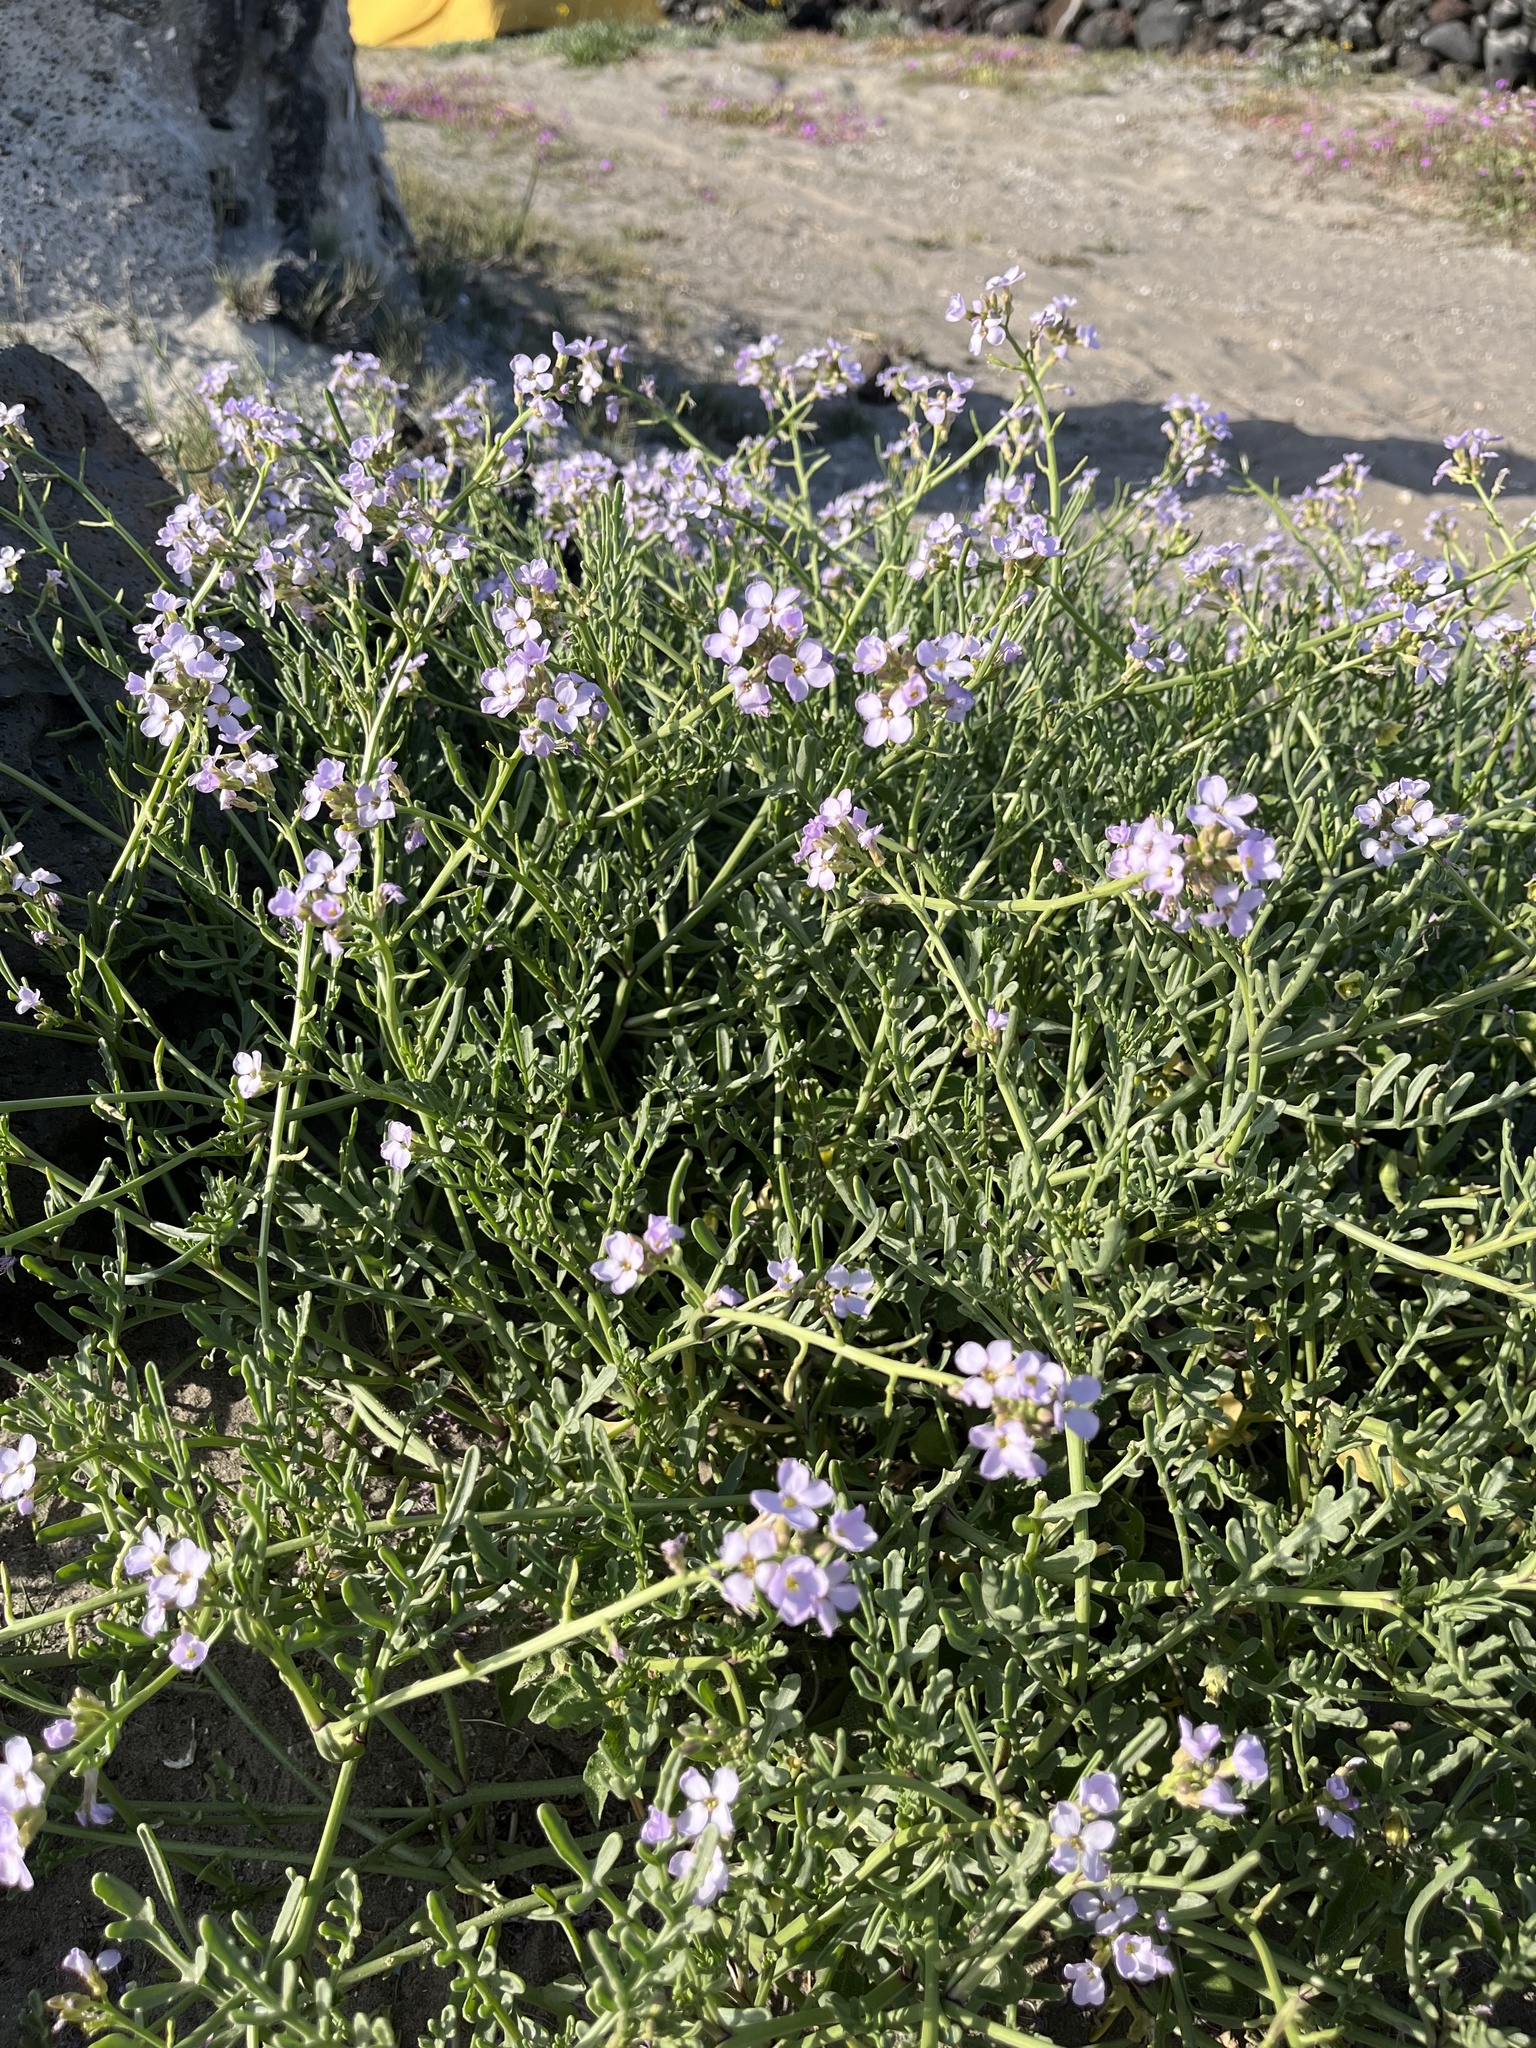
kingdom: Plantae
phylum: Tracheophyta
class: Magnoliopsida
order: Brassicales
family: Brassicaceae
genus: Cakile
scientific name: Cakile maritima
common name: Sea rocket
